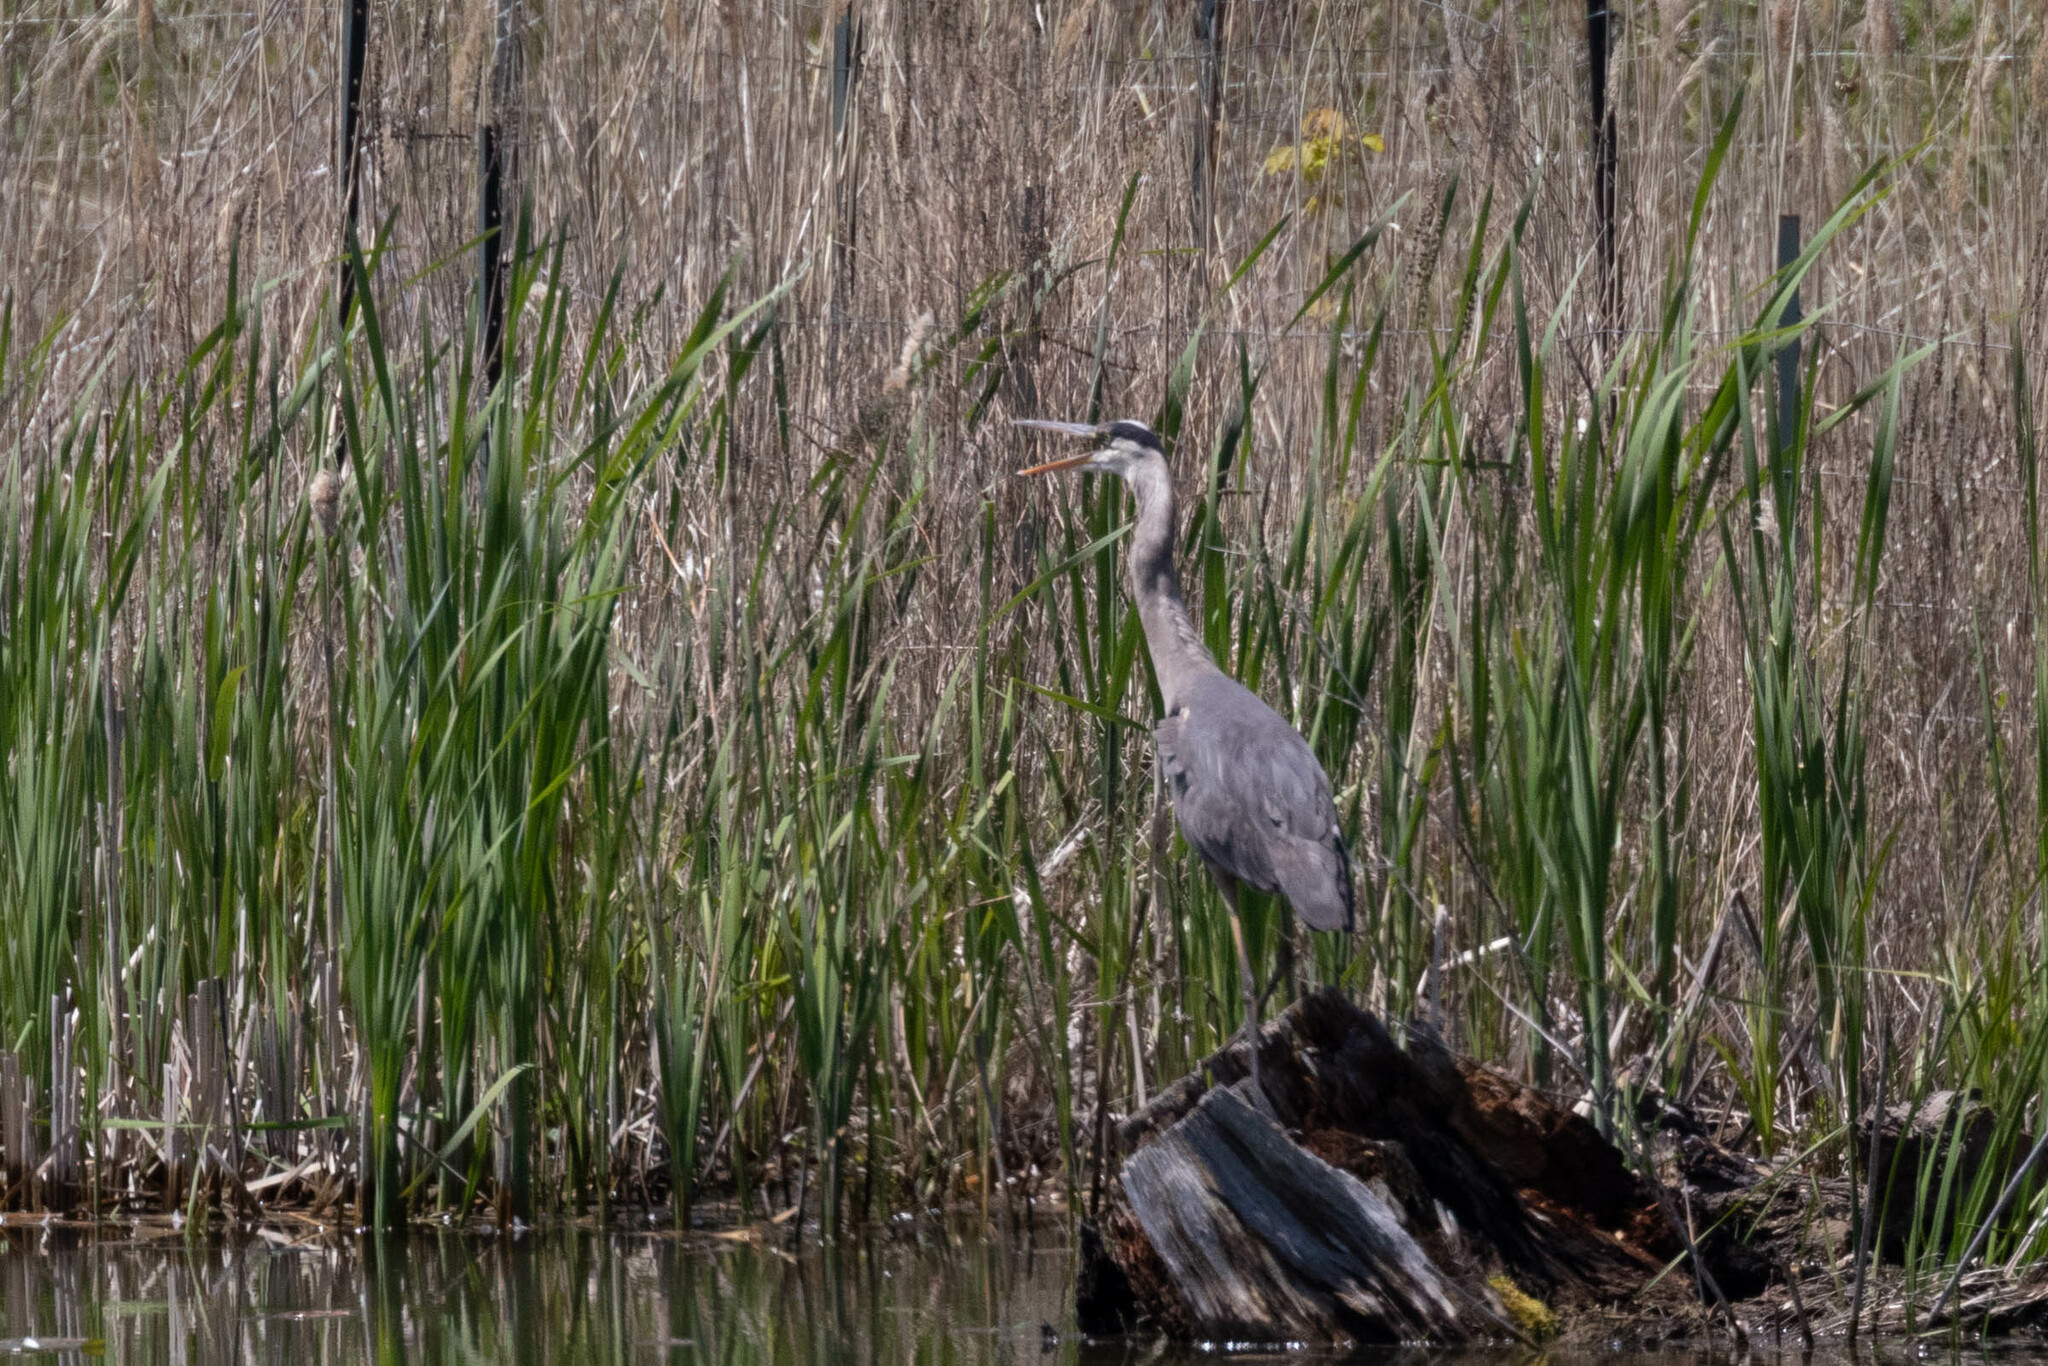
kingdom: Animalia
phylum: Chordata
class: Aves
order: Pelecaniformes
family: Ardeidae
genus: Ardea
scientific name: Ardea herodias
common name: Great blue heron
